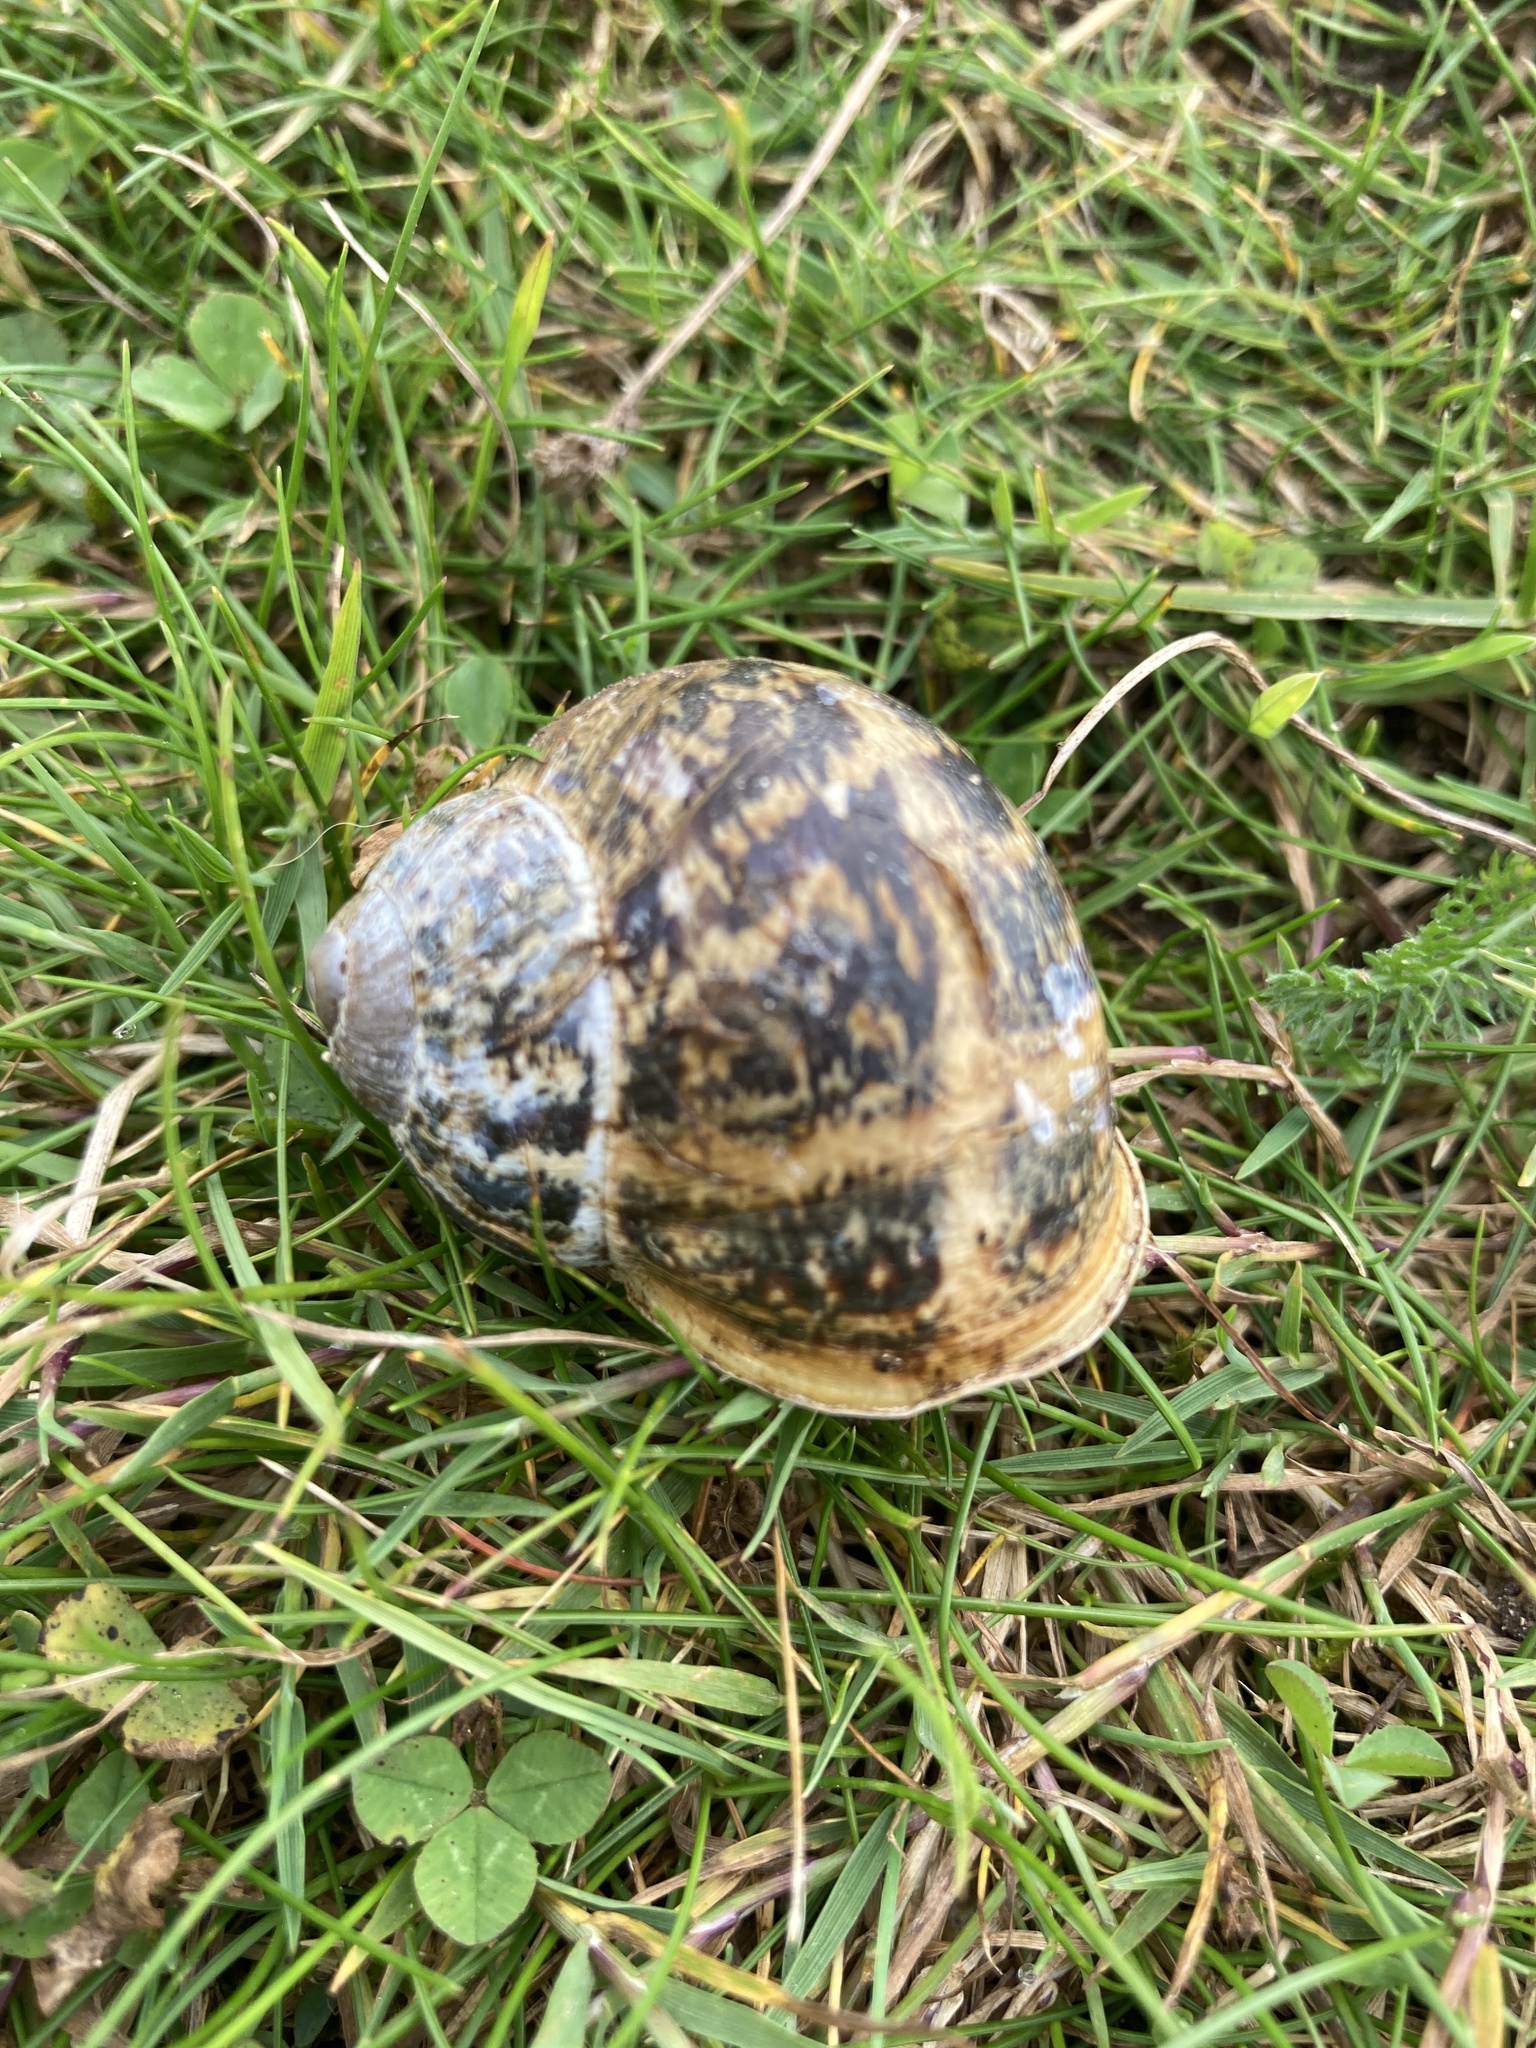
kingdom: Animalia
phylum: Mollusca
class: Gastropoda
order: Stylommatophora
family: Helicidae
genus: Cornu
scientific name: Cornu aspersum
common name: Brown garden snail
